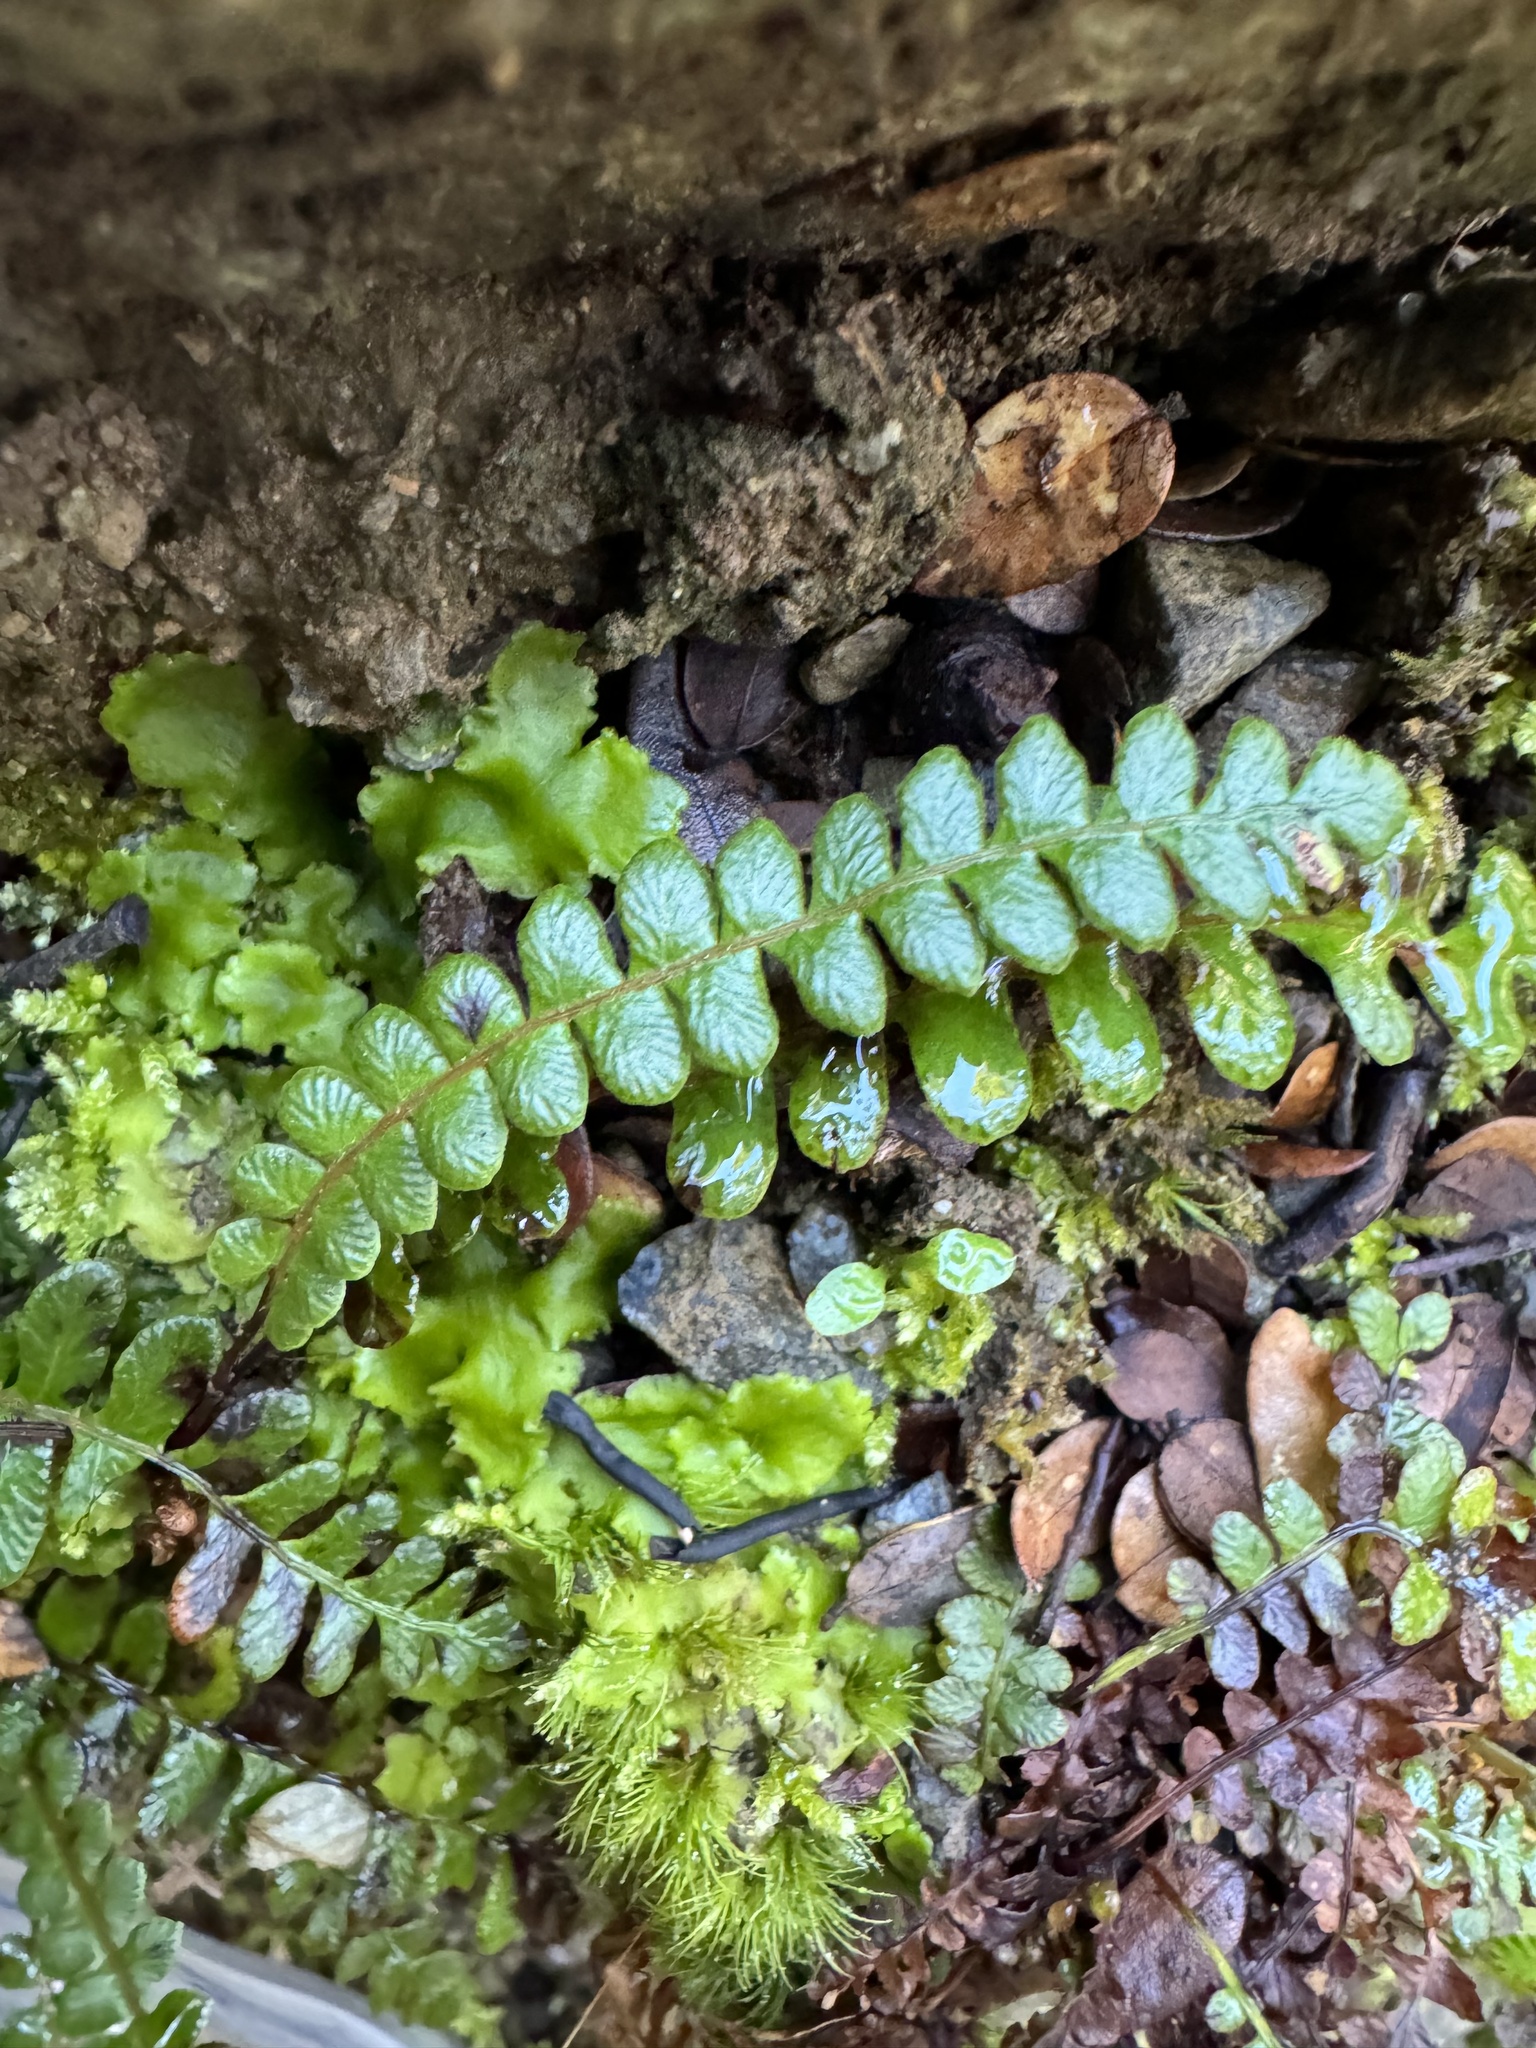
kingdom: Plantae
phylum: Tracheophyta
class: Polypodiopsida
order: Polypodiales
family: Blechnaceae
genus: Austroblechnum
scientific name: Austroblechnum penna-marina
